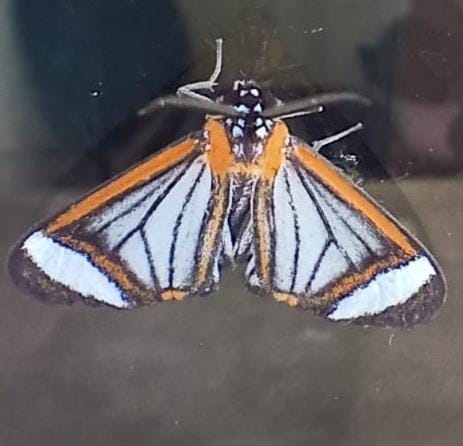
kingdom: Animalia
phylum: Arthropoda
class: Insecta
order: Lepidoptera
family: Erebidae
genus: Hyalurga
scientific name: Hyalurga sora
